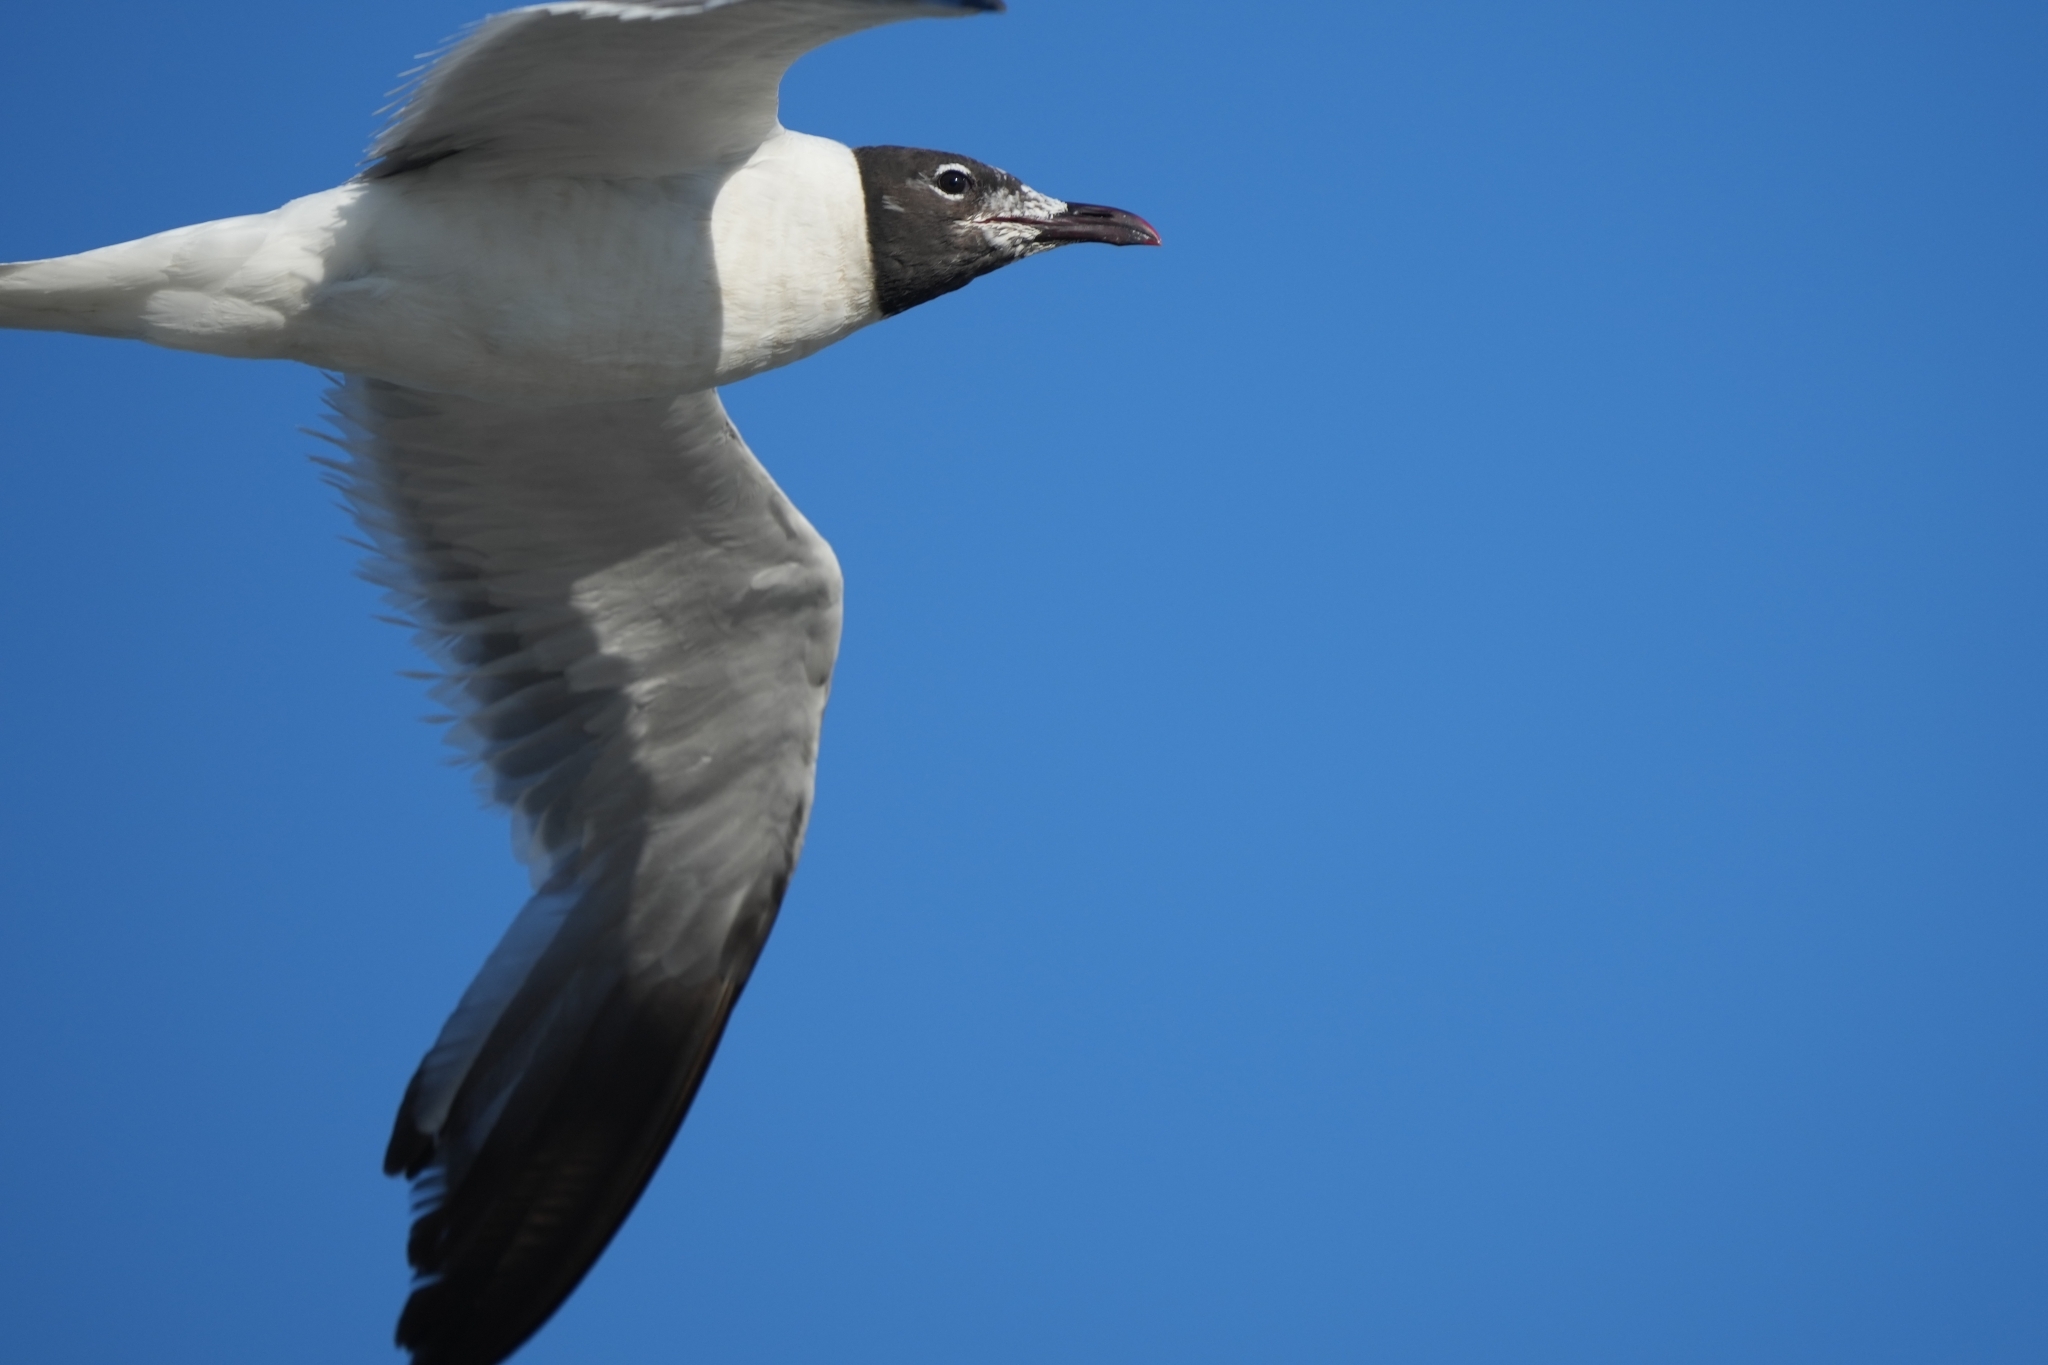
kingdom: Animalia
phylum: Chordata
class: Aves
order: Charadriiformes
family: Laridae
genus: Leucophaeus
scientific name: Leucophaeus atricilla
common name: Laughing gull
